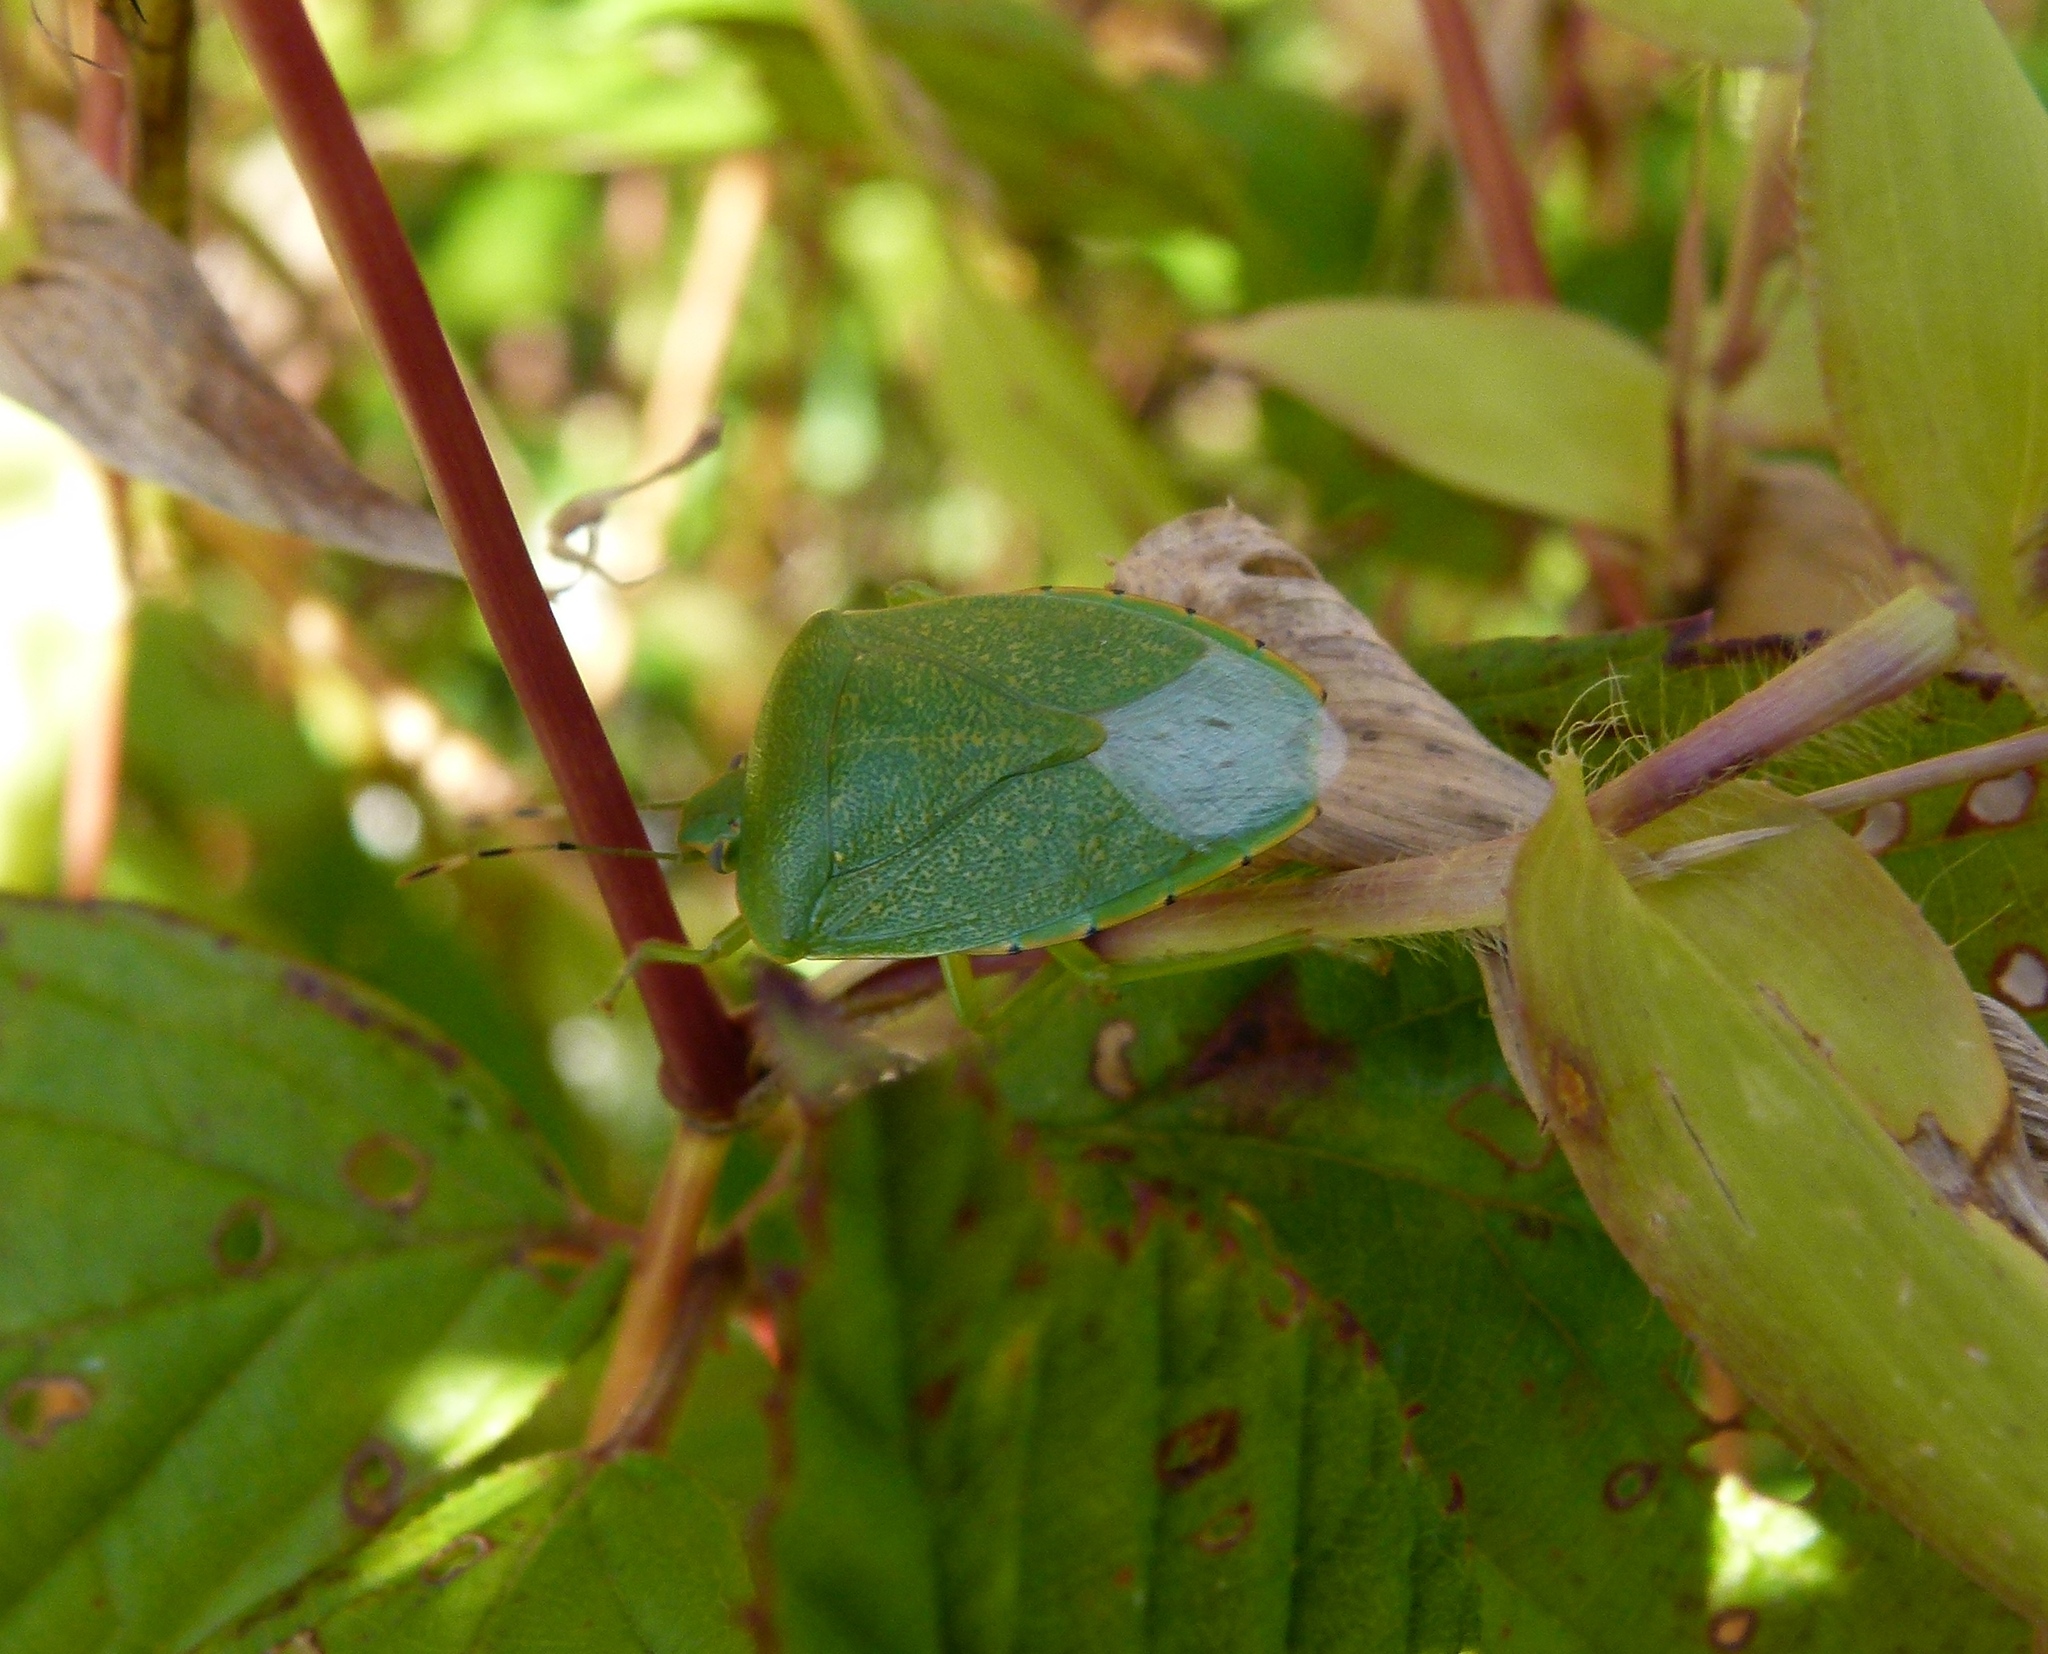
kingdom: Animalia
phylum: Arthropoda
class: Insecta
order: Hemiptera
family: Pentatomidae
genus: Chinavia
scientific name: Chinavia hilaris
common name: Green stink bug
